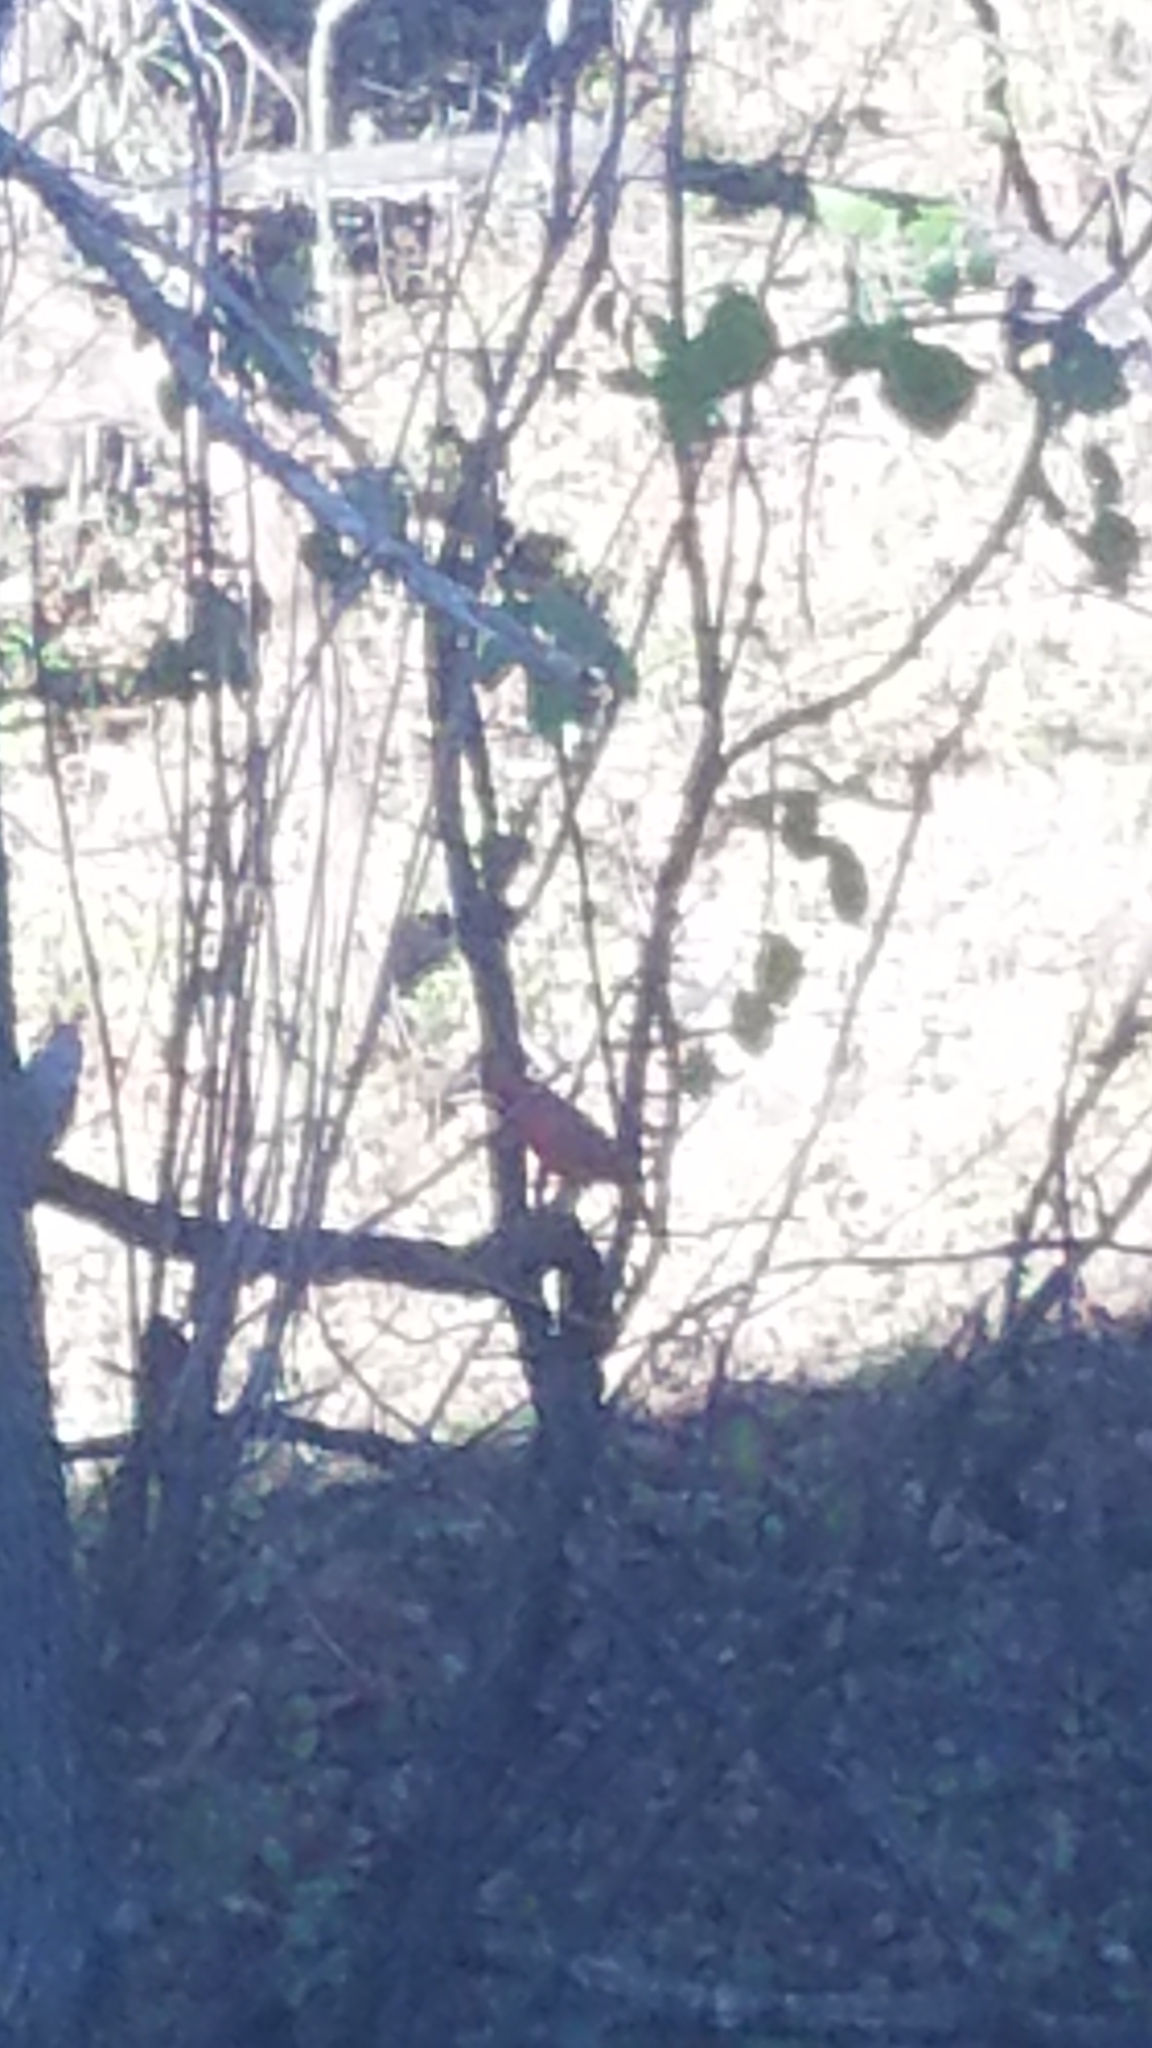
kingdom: Animalia
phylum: Chordata
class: Aves
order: Passeriformes
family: Cardinalidae
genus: Cardinalis
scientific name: Cardinalis cardinalis
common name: Northern cardinal
